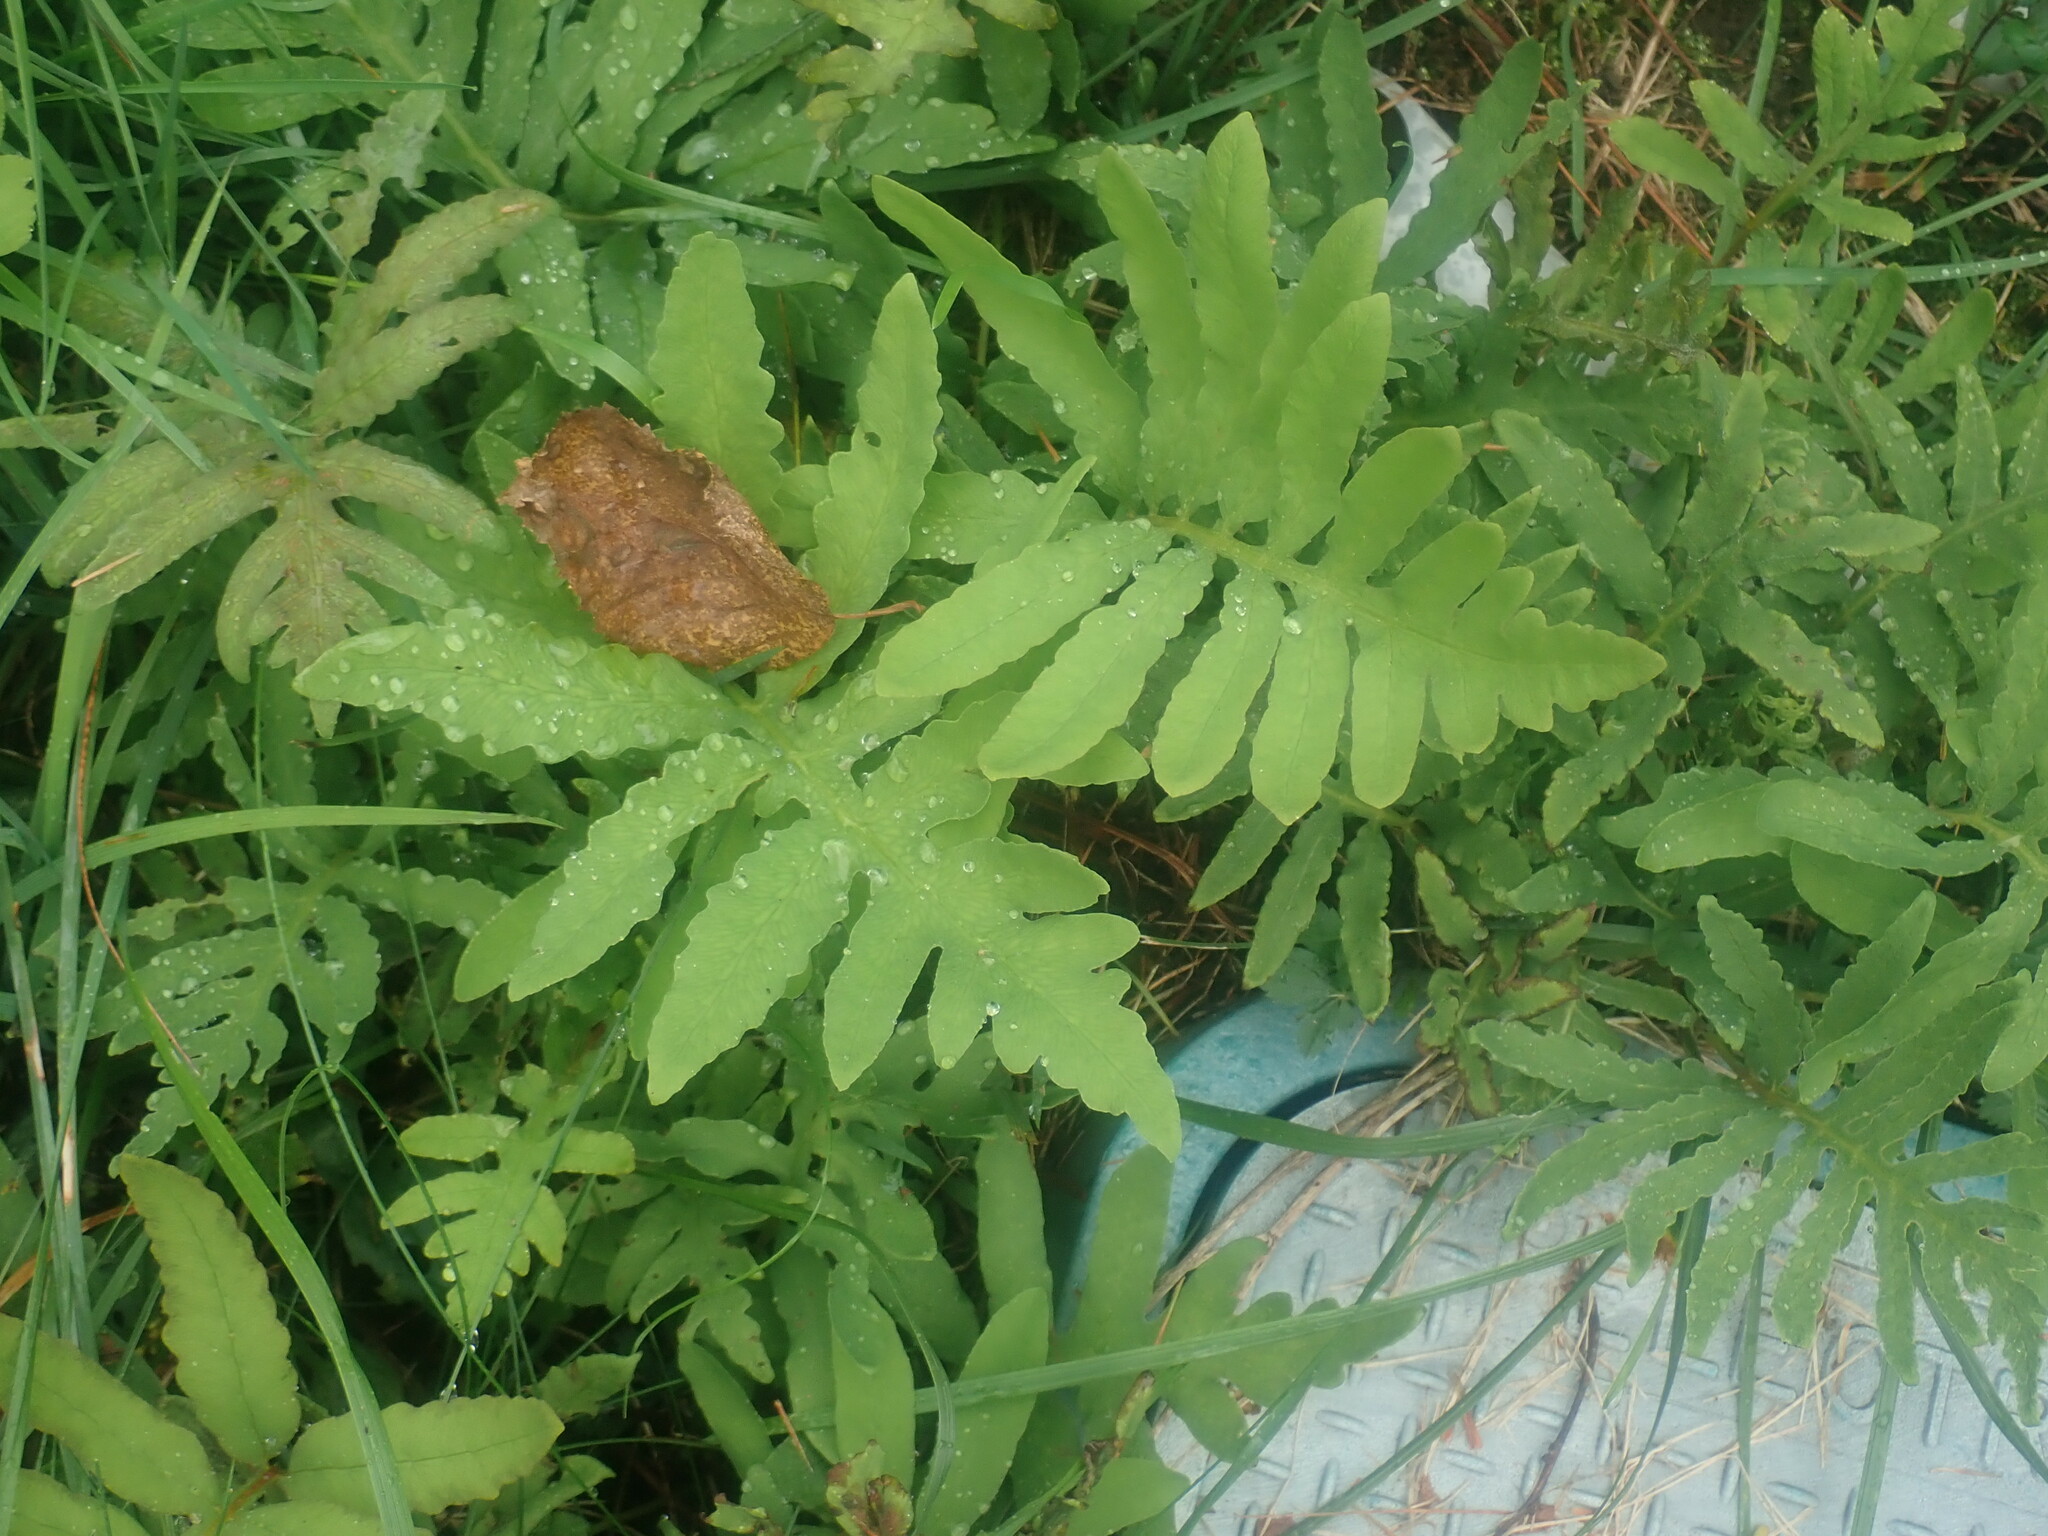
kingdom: Plantae
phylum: Tracheophyta
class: Polypodiopsida
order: Polypodiales
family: Onocleaceae
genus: Onoclea
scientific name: Onoclea sensibilis
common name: Sensitive fern
